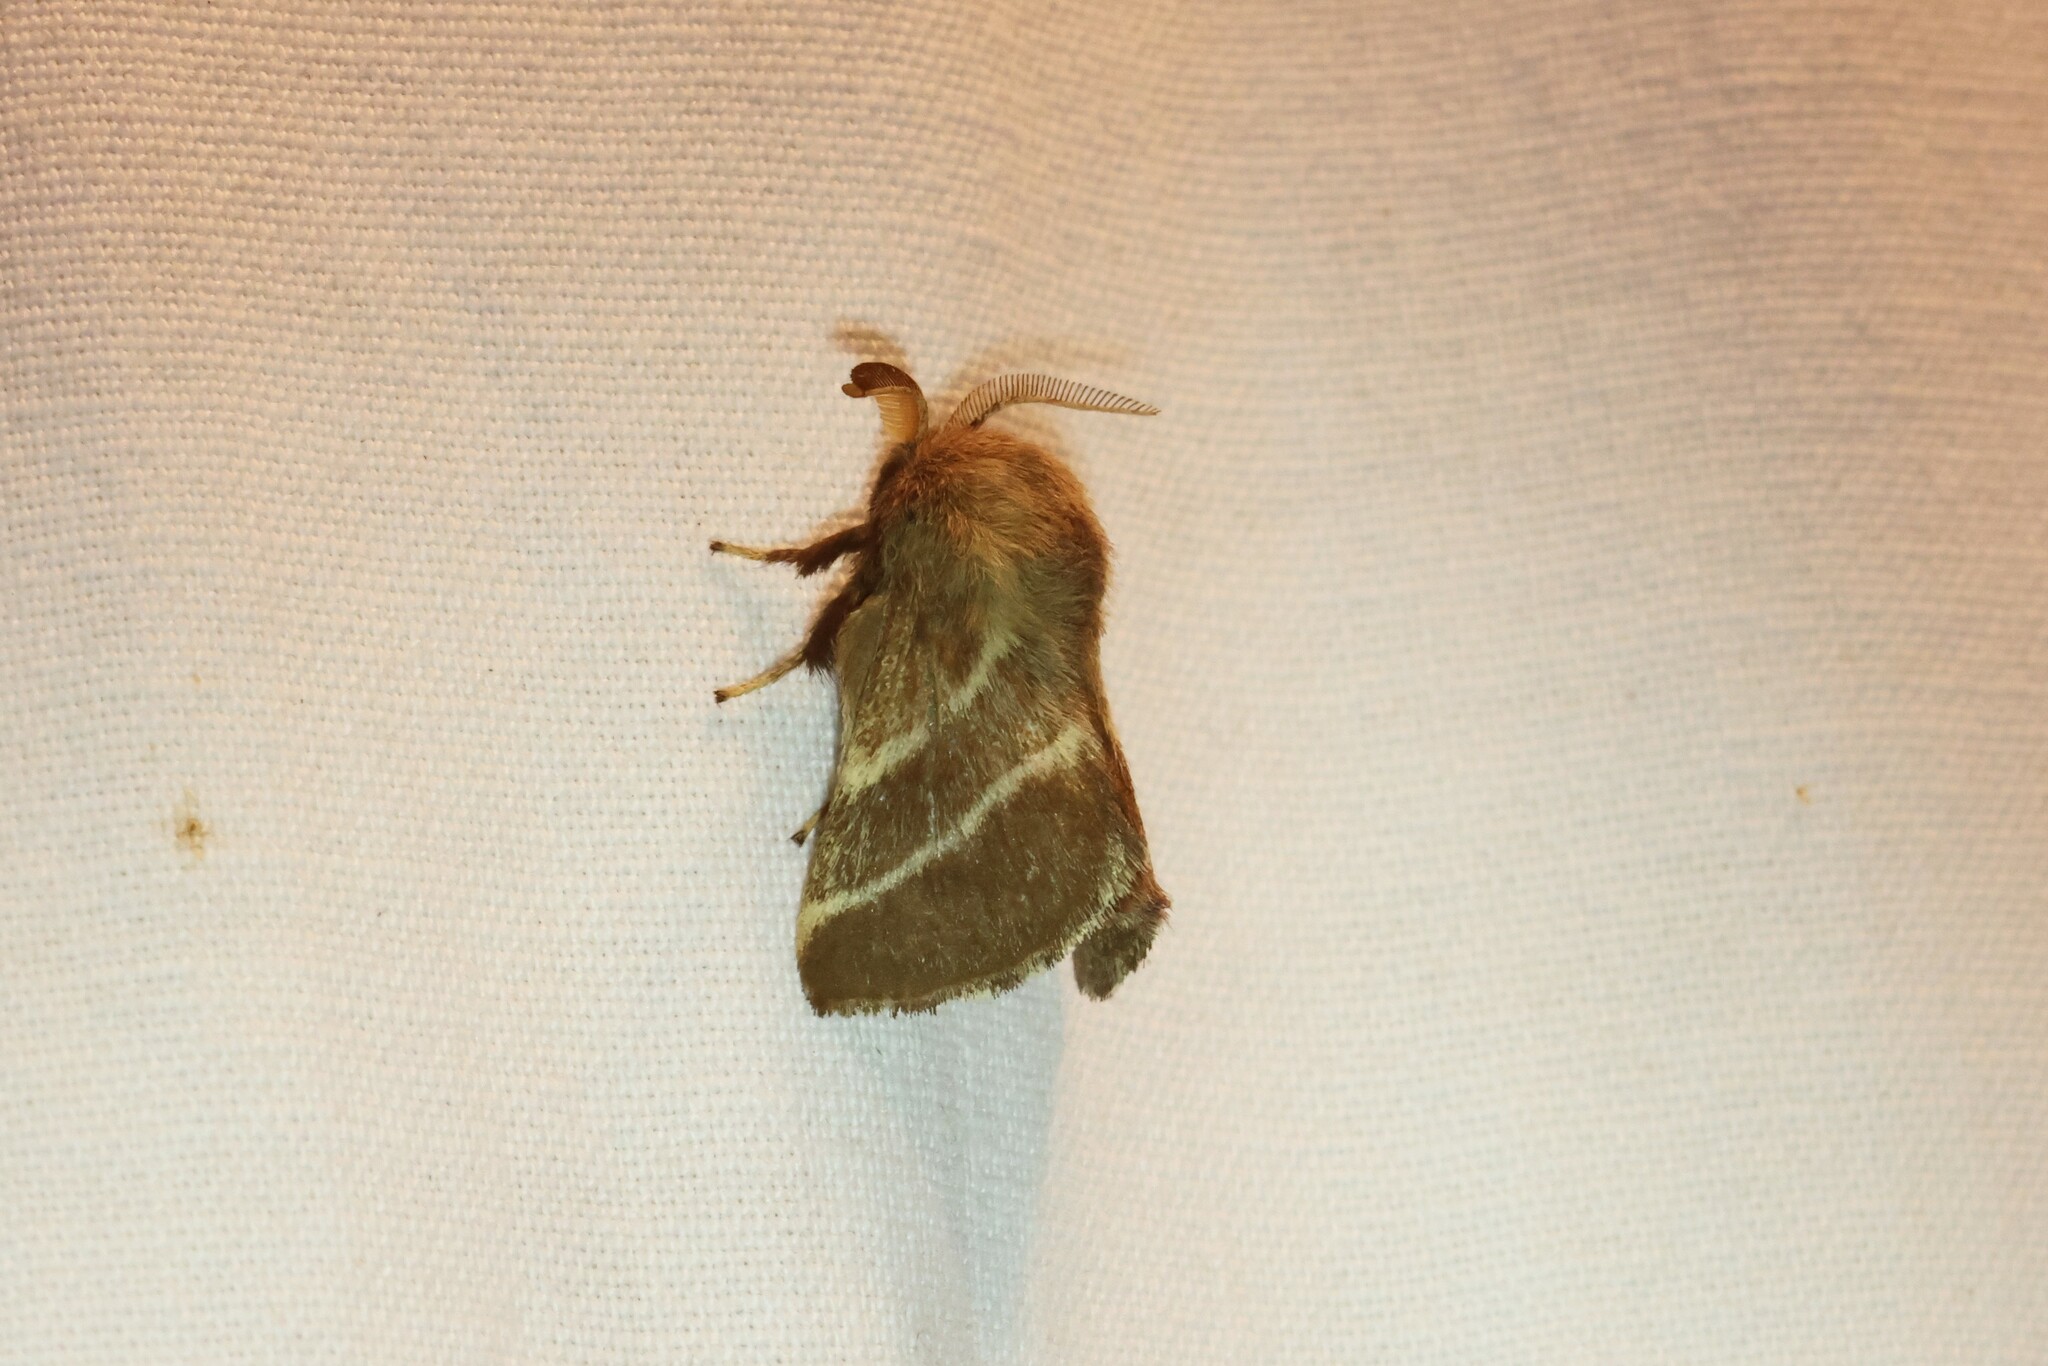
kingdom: Animalia
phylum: Arthropoda
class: Insecta
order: Lepidoptera
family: Lasiocampidae
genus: Malacosoma
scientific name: Malacosoma americana
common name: Eastern tent caterpillar moth
